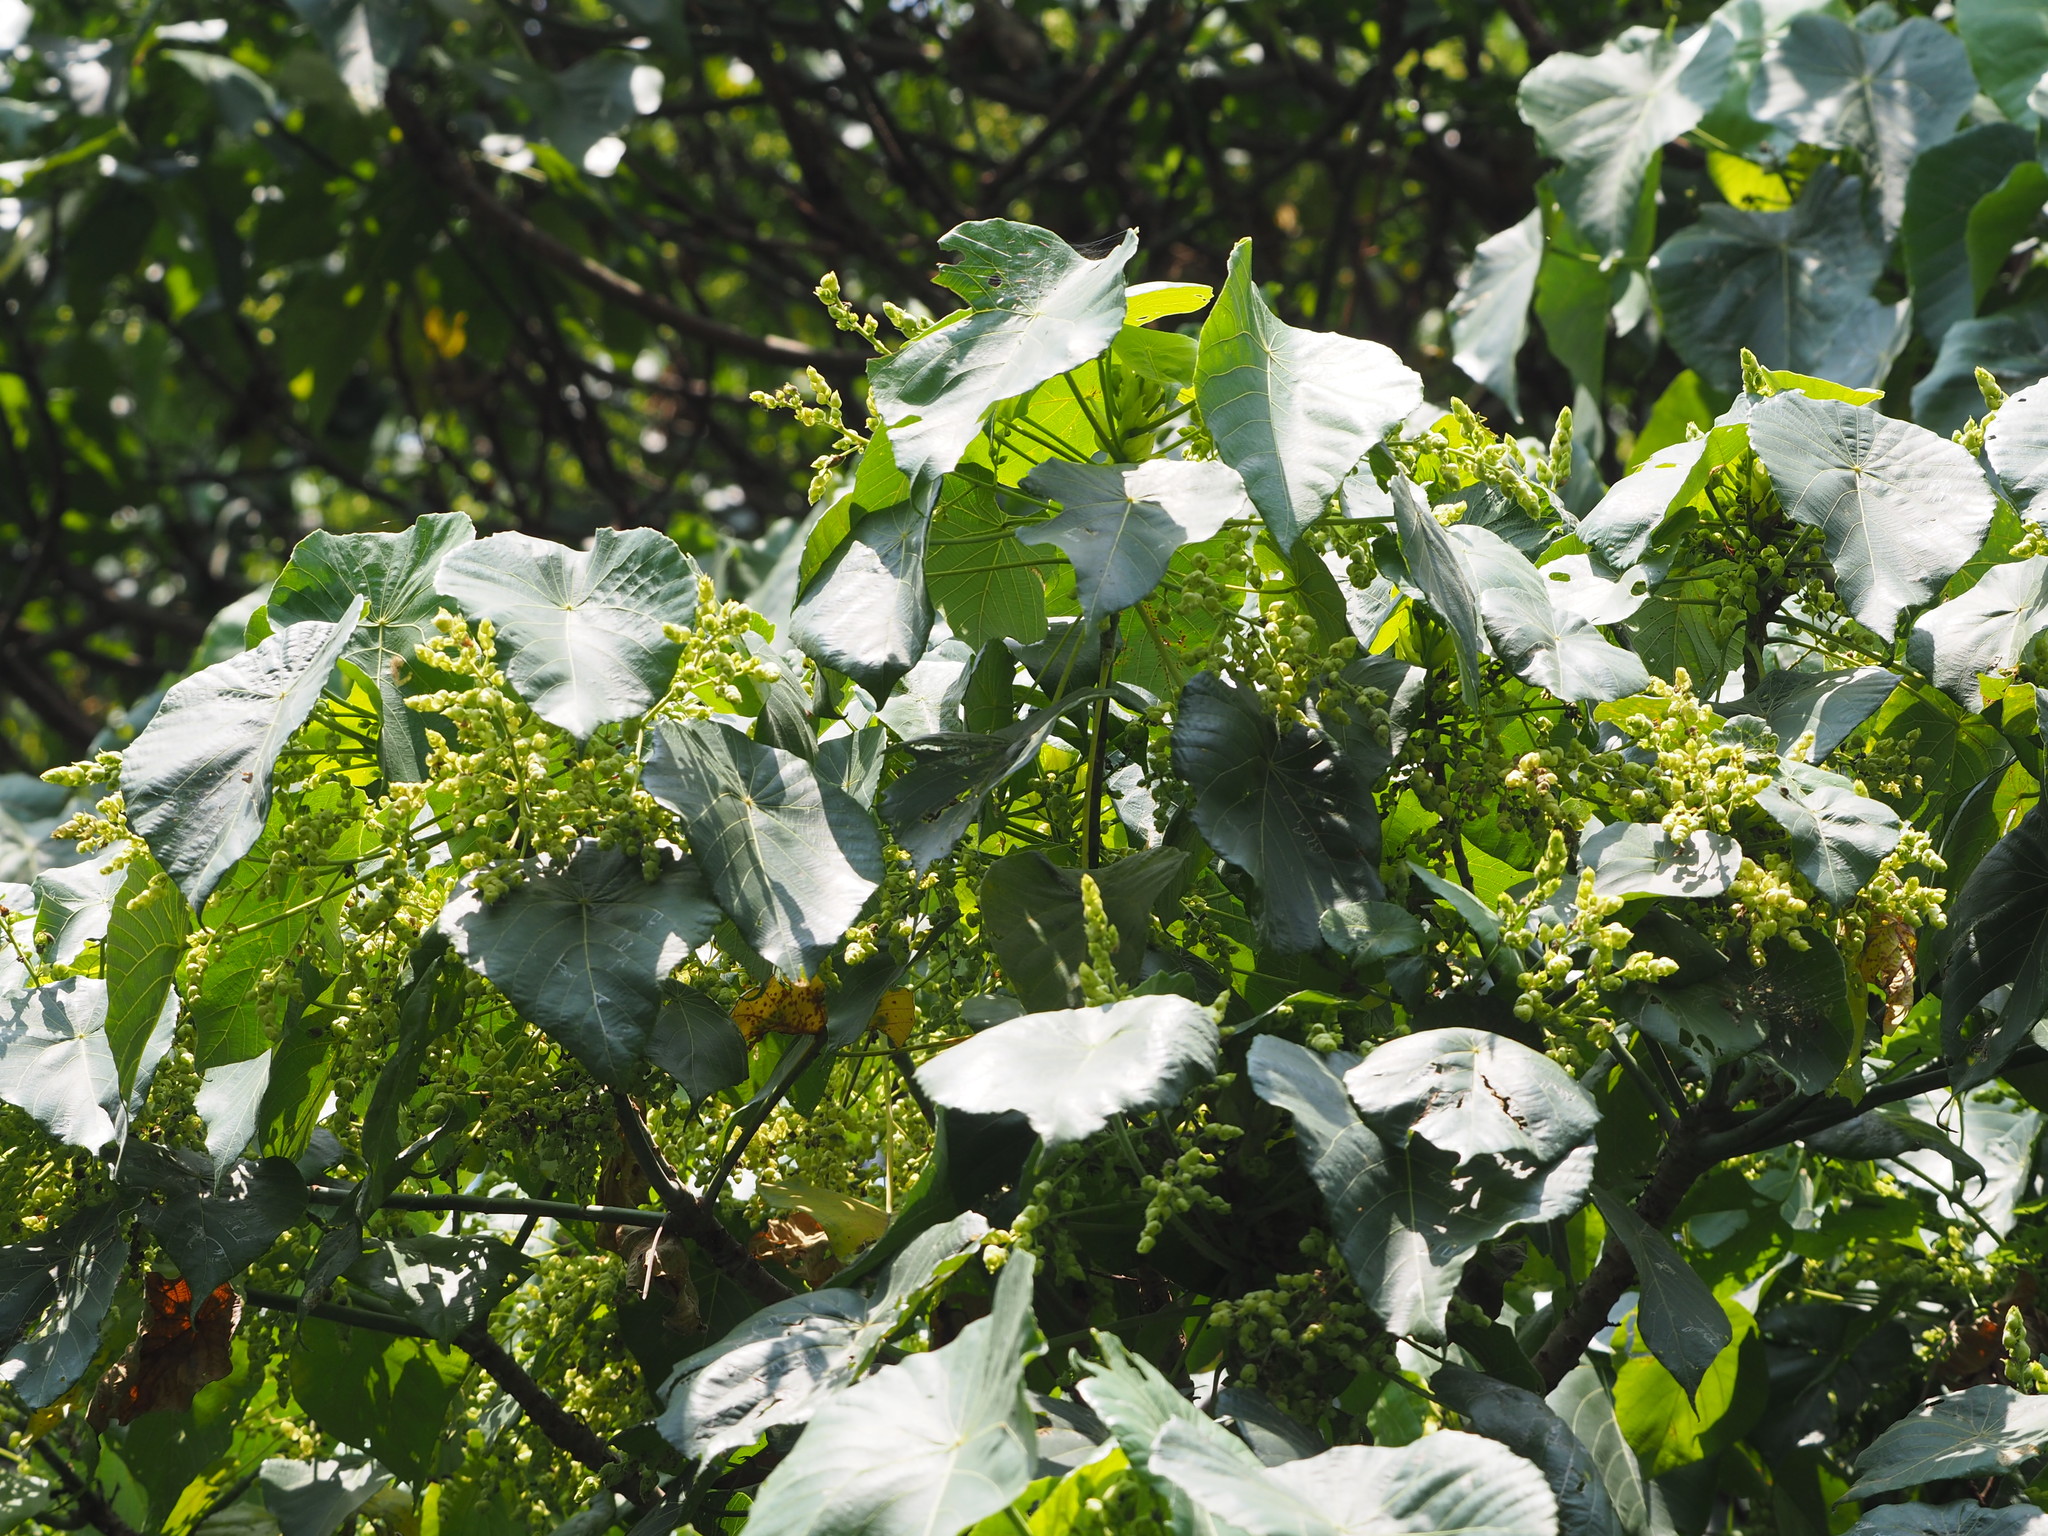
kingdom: Plantae
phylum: Tracheophyta
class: Magnoliopsida
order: Malpighiales
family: Euphorbiaceae
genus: Macaranga
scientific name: Macaranga tanarius
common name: Parasol leaf tree
